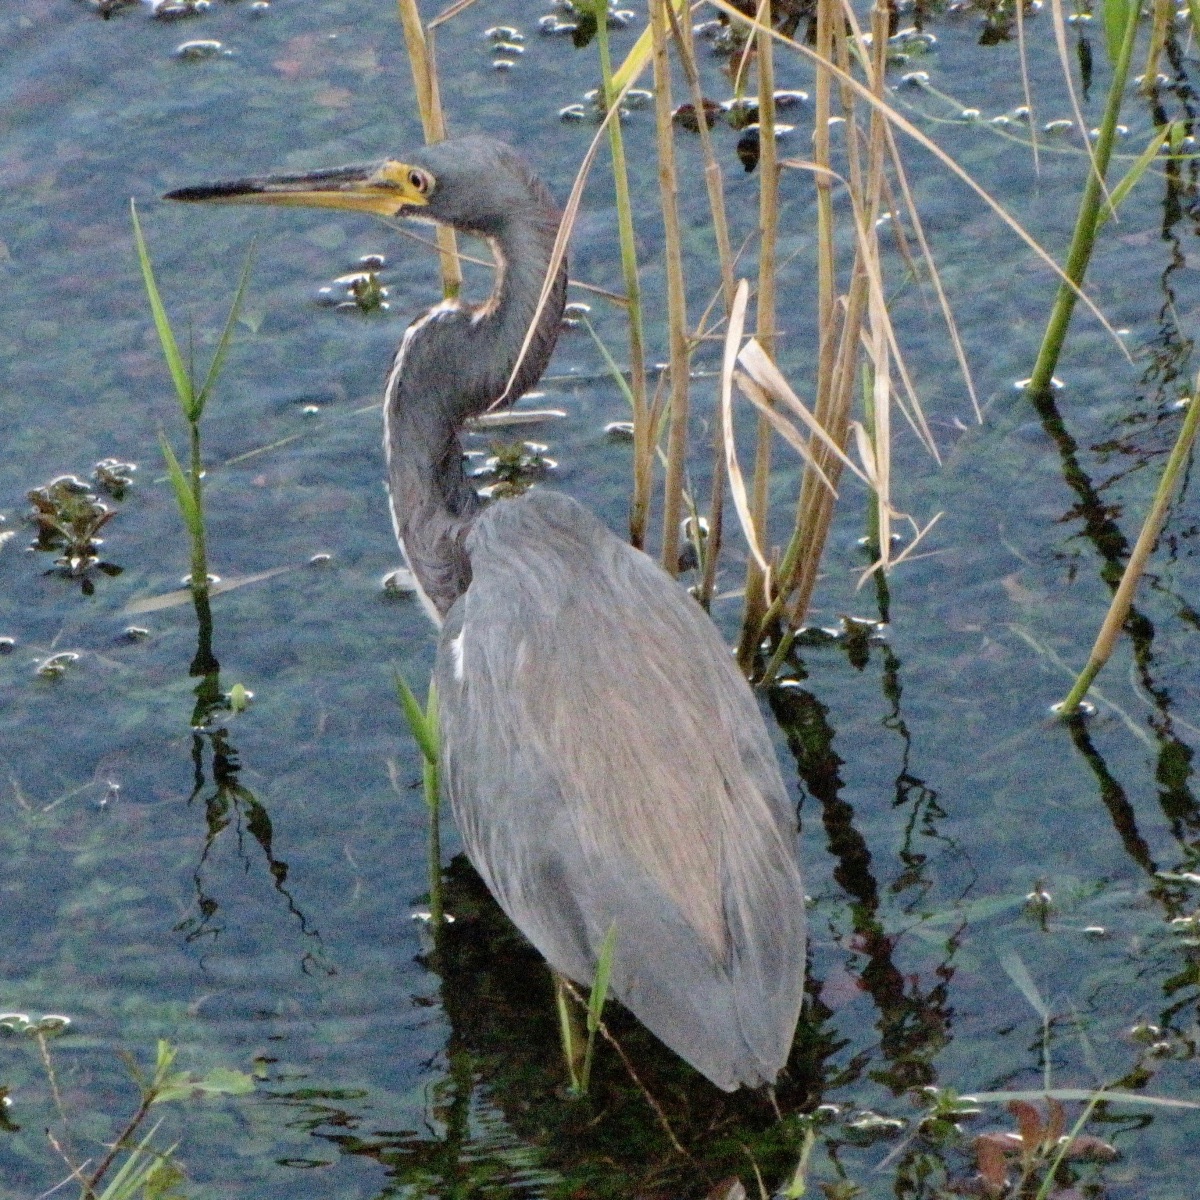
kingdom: Animalia
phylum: Chordata
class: Aves
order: Pelecaniformes
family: Ardeidae
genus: Egretta
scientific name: Egretta tricolor
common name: Tricolored heron
